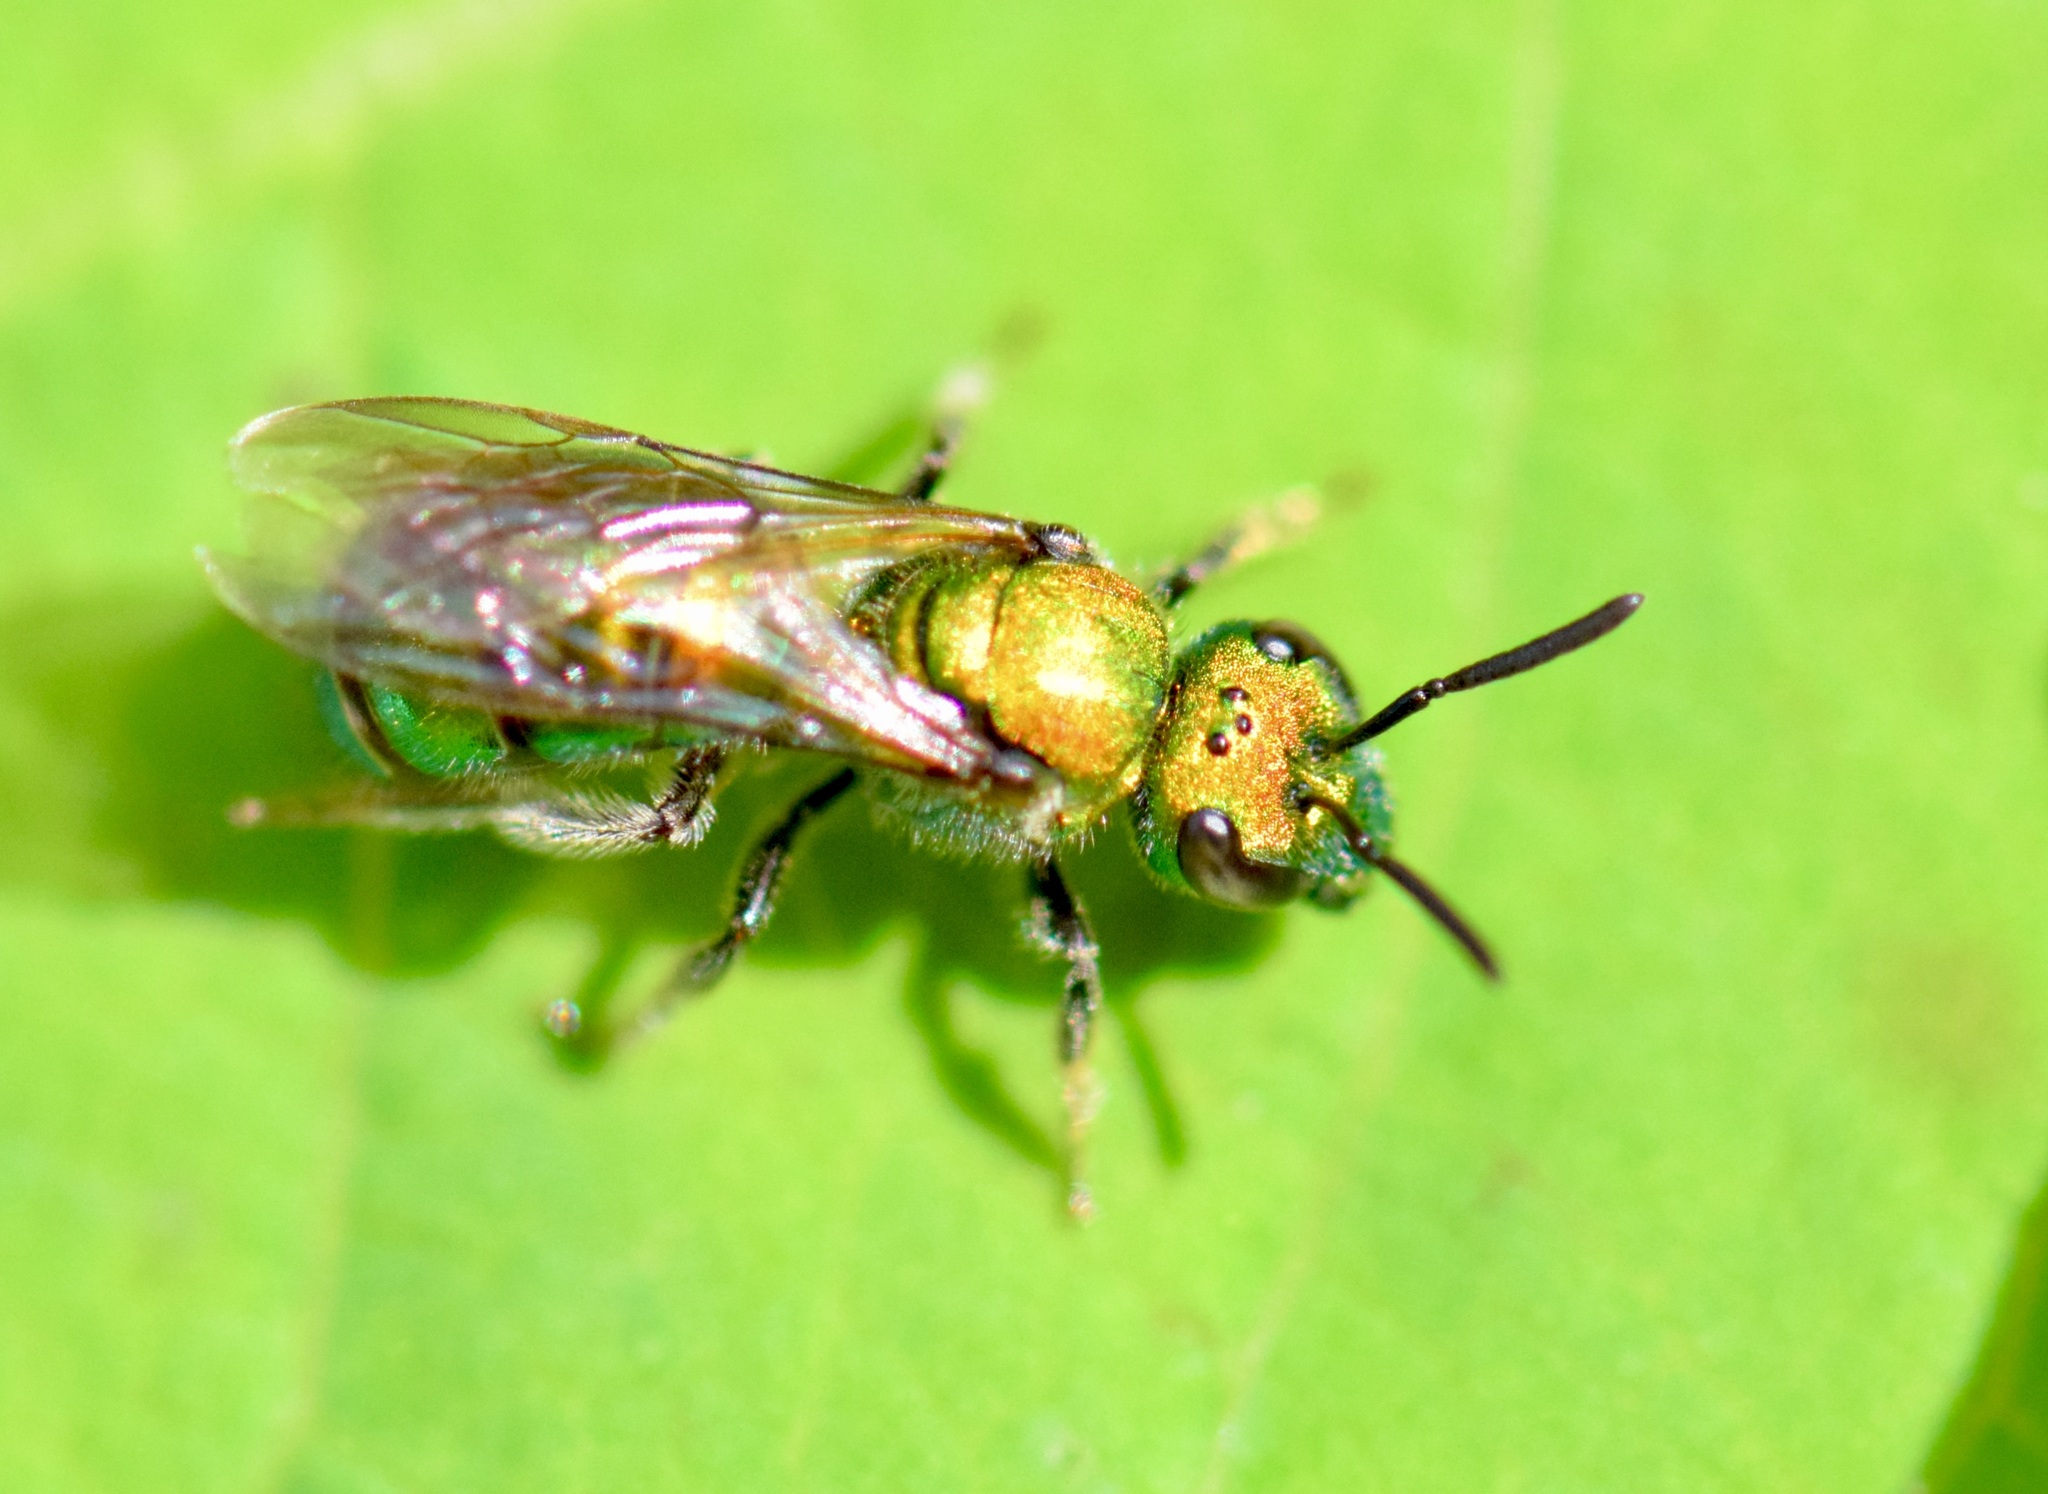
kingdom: Animalia
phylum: Arthropoda
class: Insecta
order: Hymenoptera
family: Halictidae
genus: Augochlora
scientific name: Augochlora pura
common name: Pure green sweat bee
